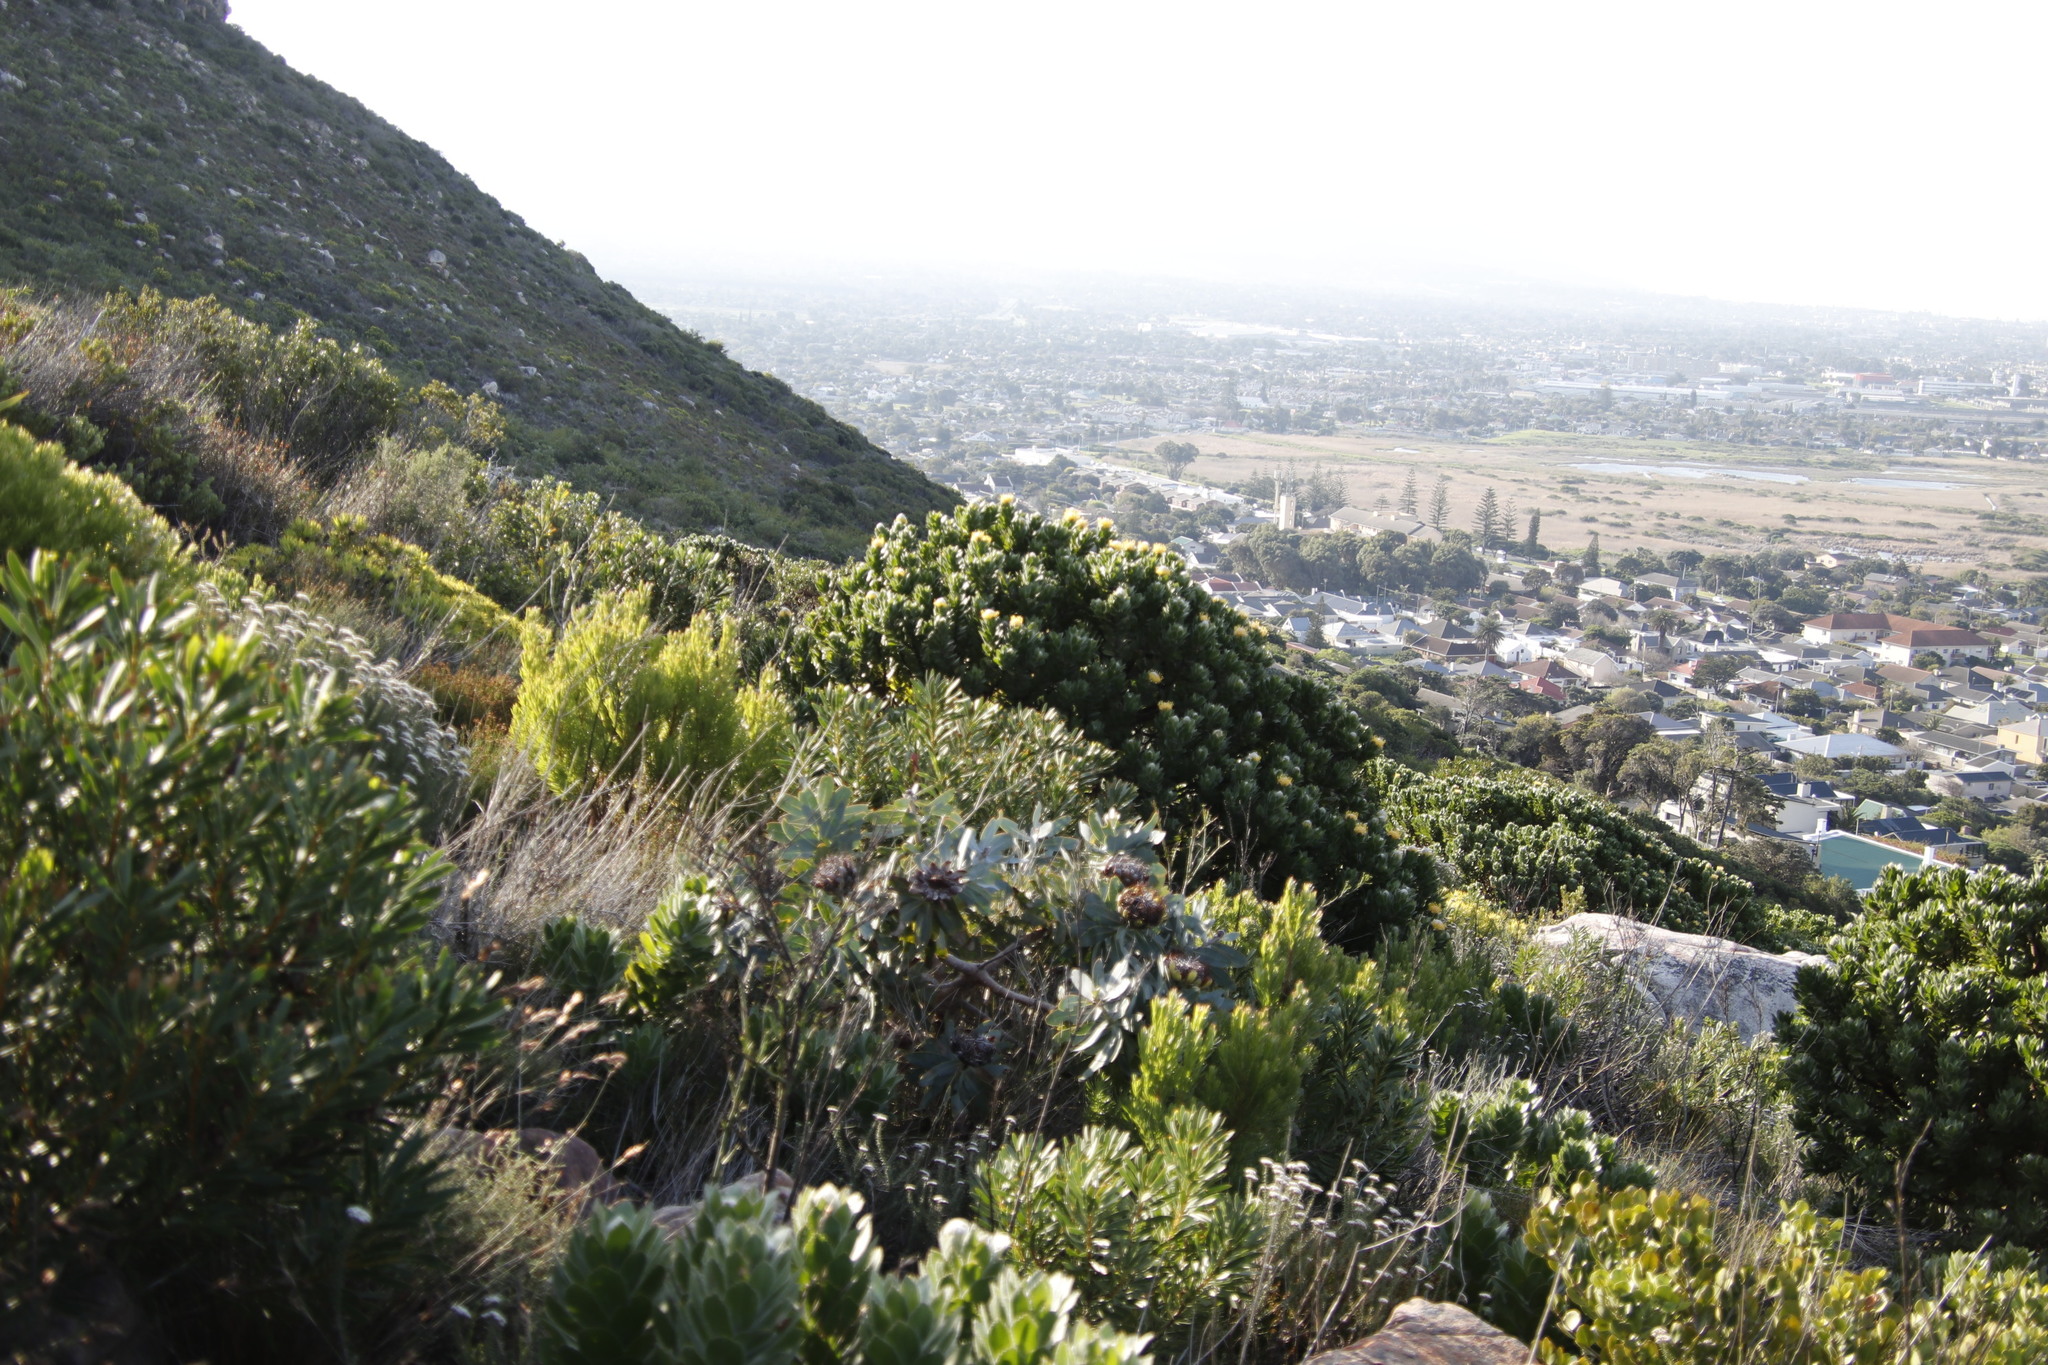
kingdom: Plantae
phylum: Tracheophyta
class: Magnoliopsida
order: Proteales
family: Proteaceae
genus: Leucospermum
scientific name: Leucospermum conocarpodendron
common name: Tree pincushion
